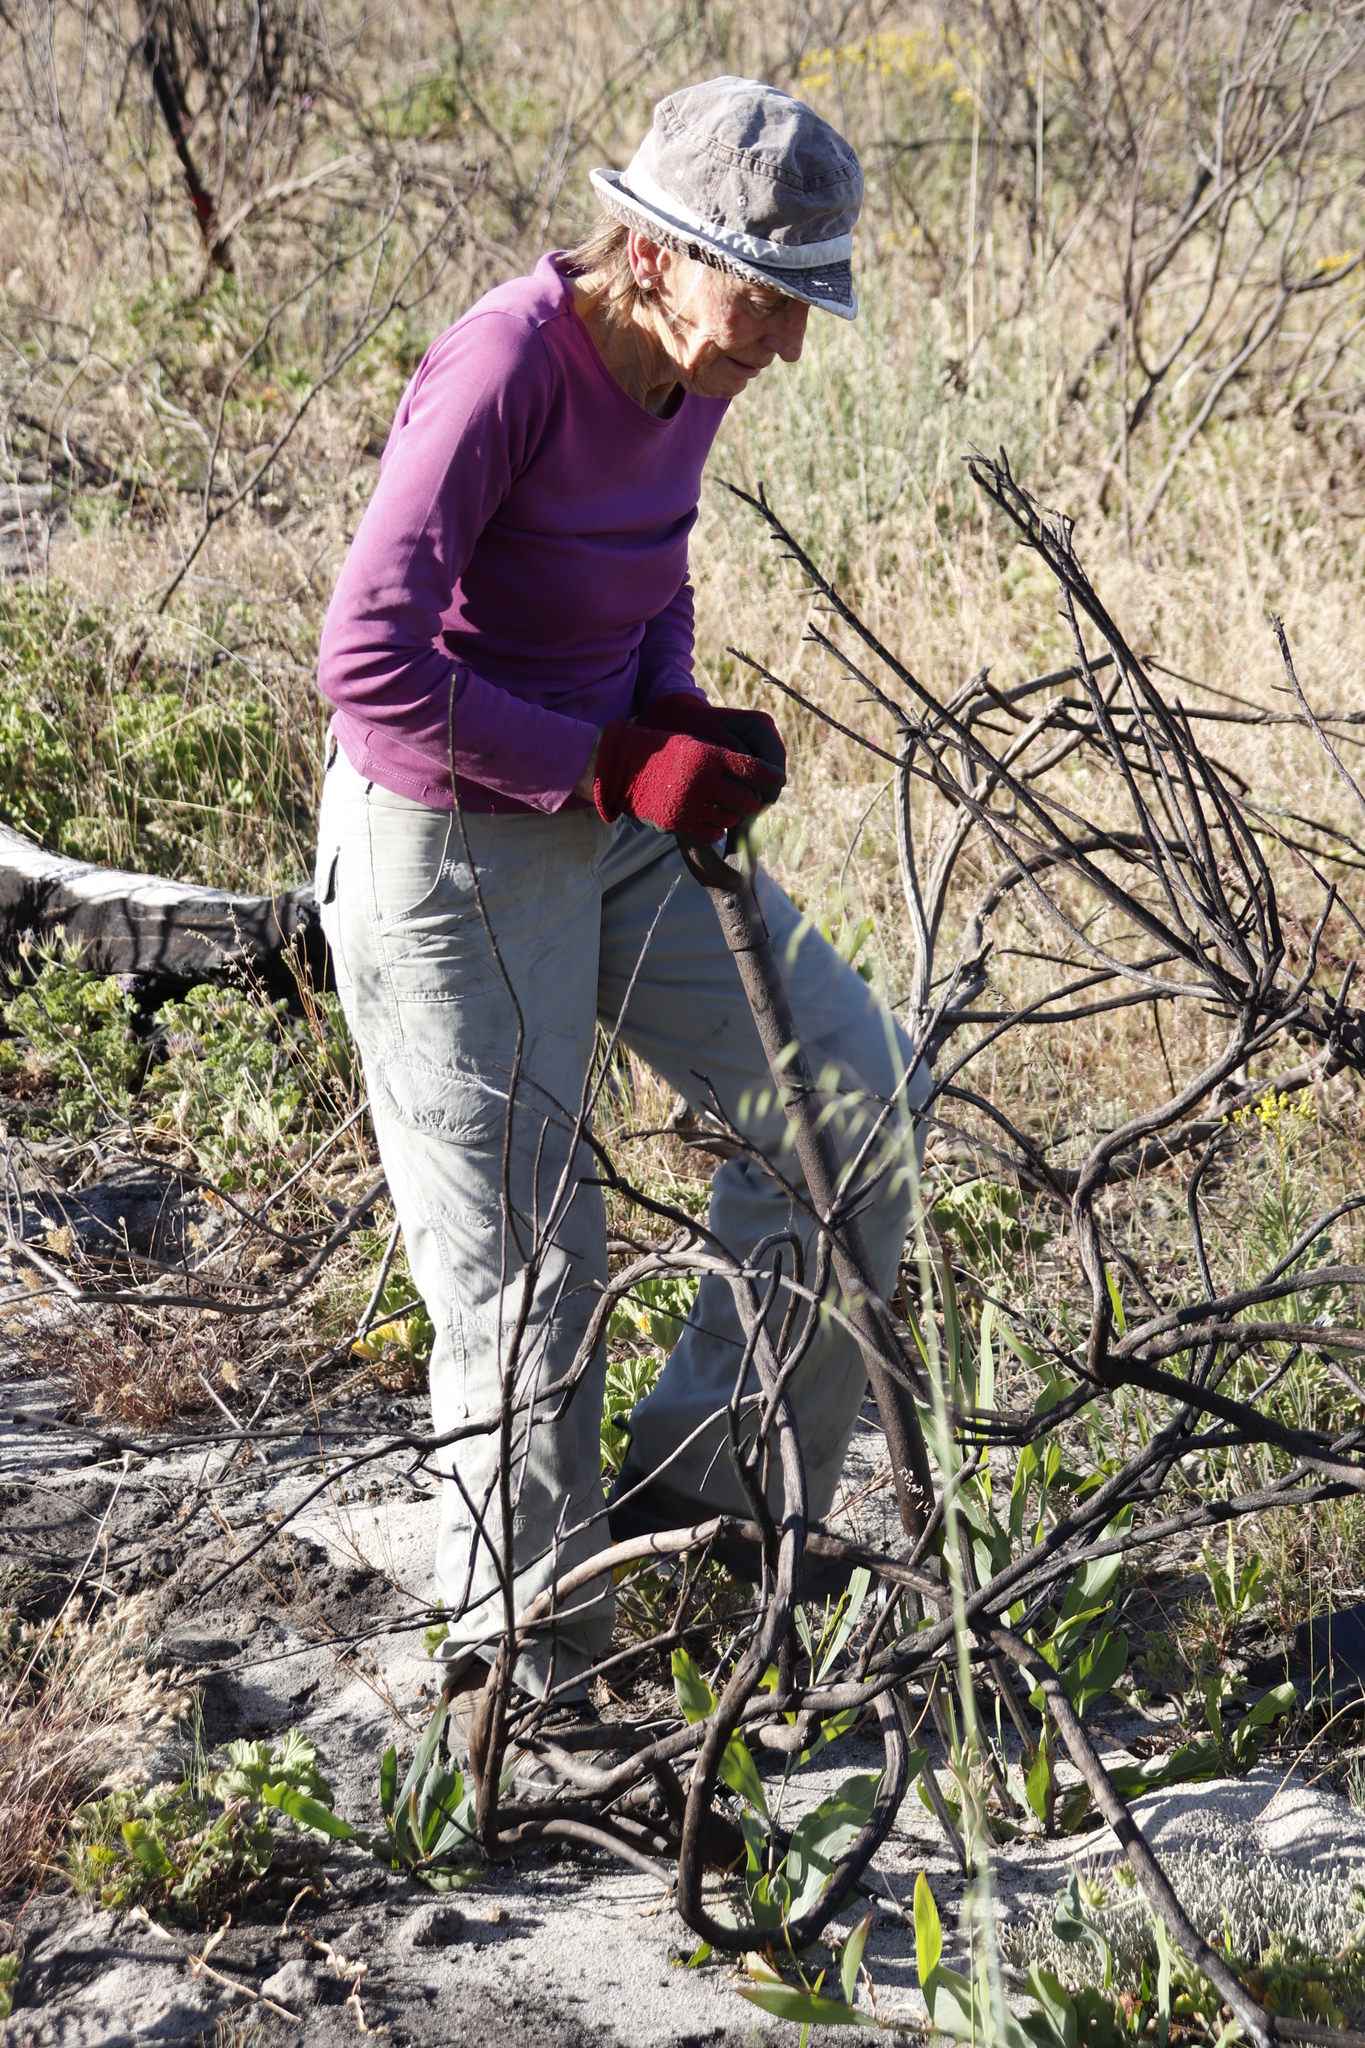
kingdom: Plantae
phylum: Tracheophyta
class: Magnoliopsida
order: Fabales
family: Fabaceae
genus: Acacia
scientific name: Acacia saligna
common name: Orange wattle
